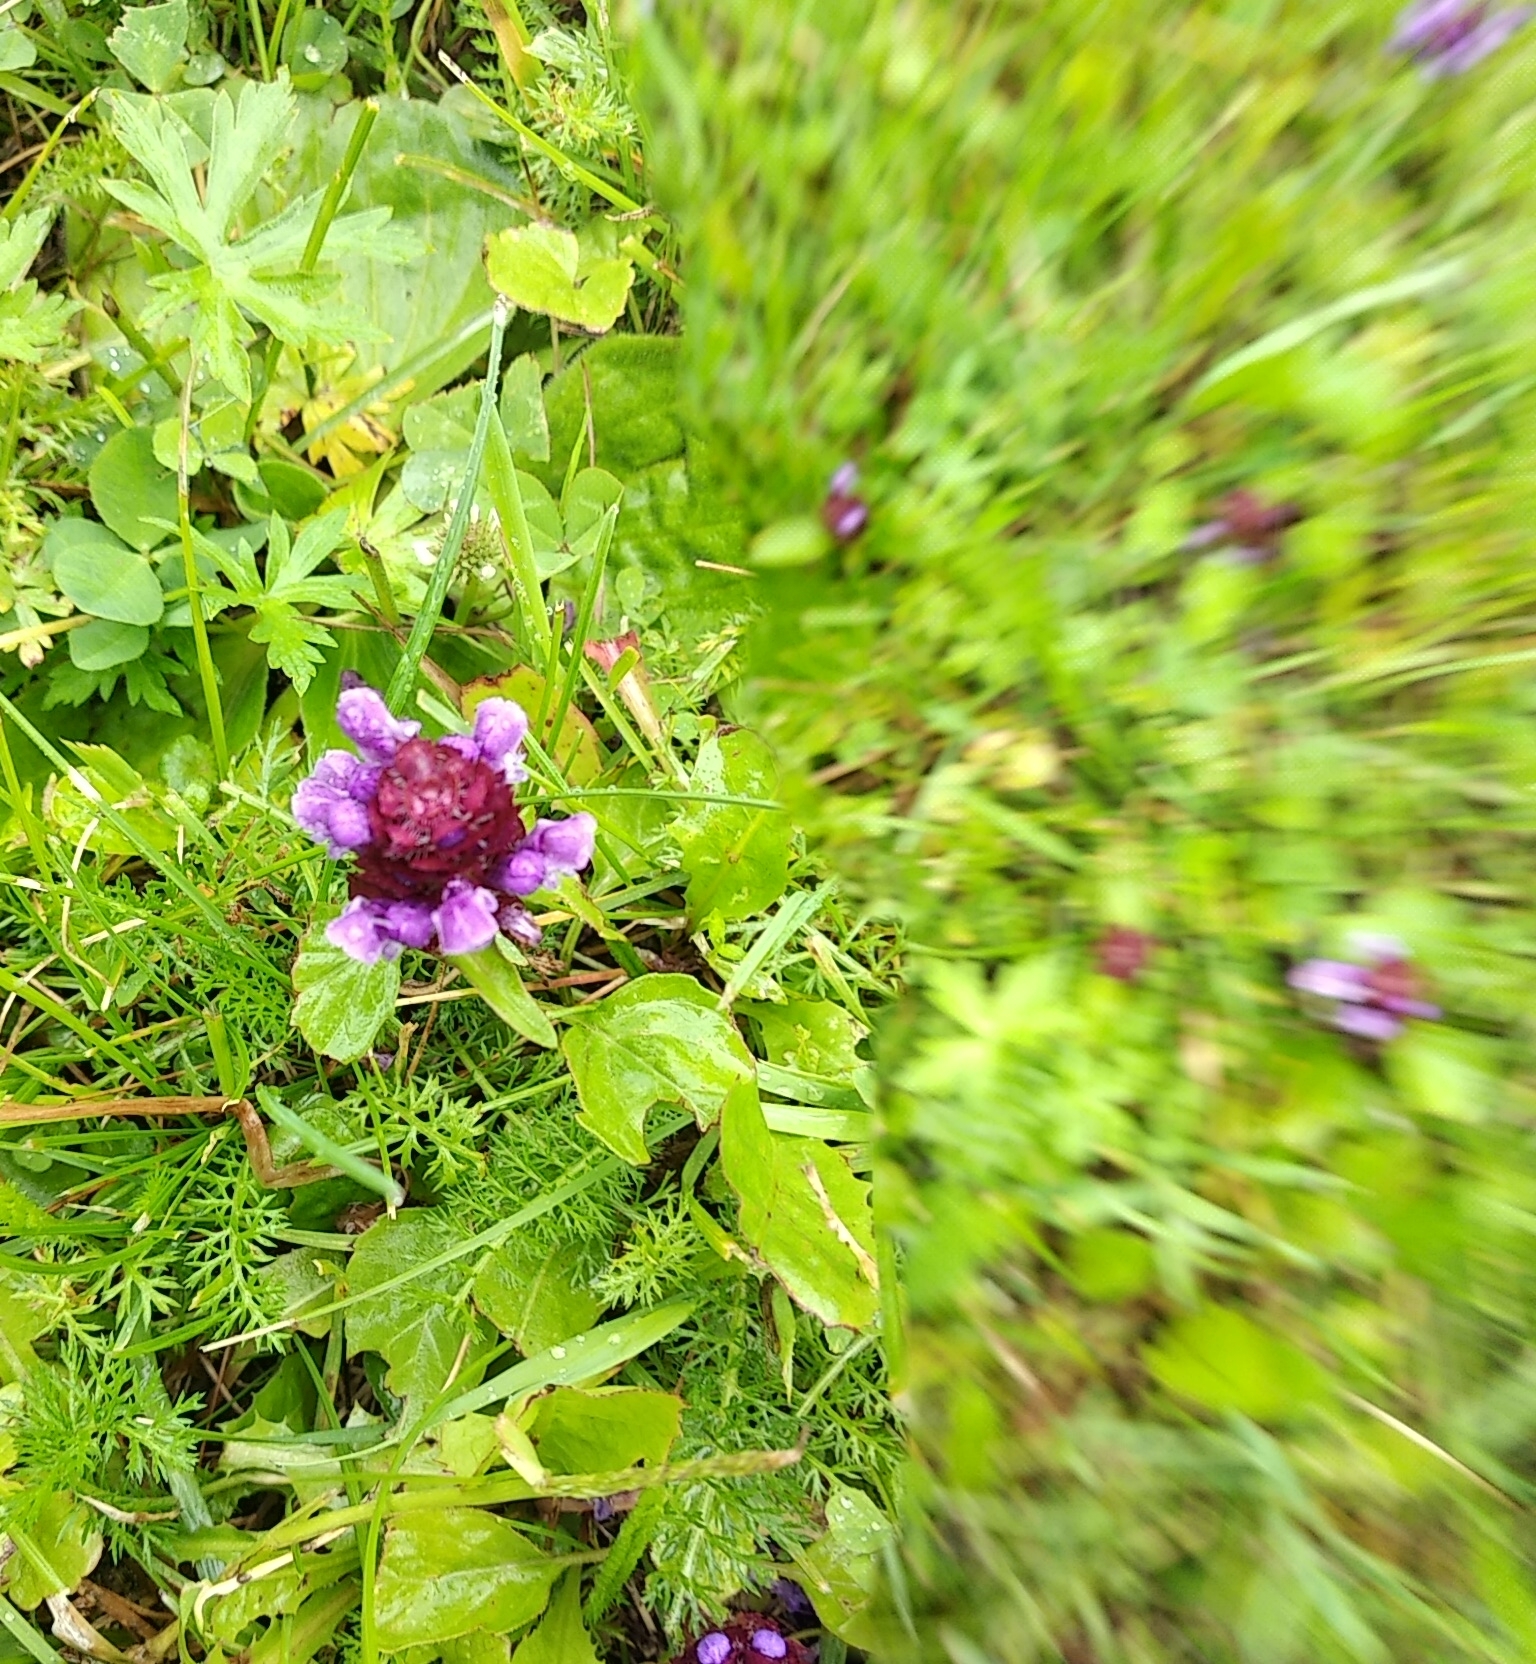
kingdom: Plantae
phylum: Tracheophyta
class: Magnoliopsida
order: Lamiales
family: Lamiaceae
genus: Prunella
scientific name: Prunella vulgaris
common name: Heal-all
